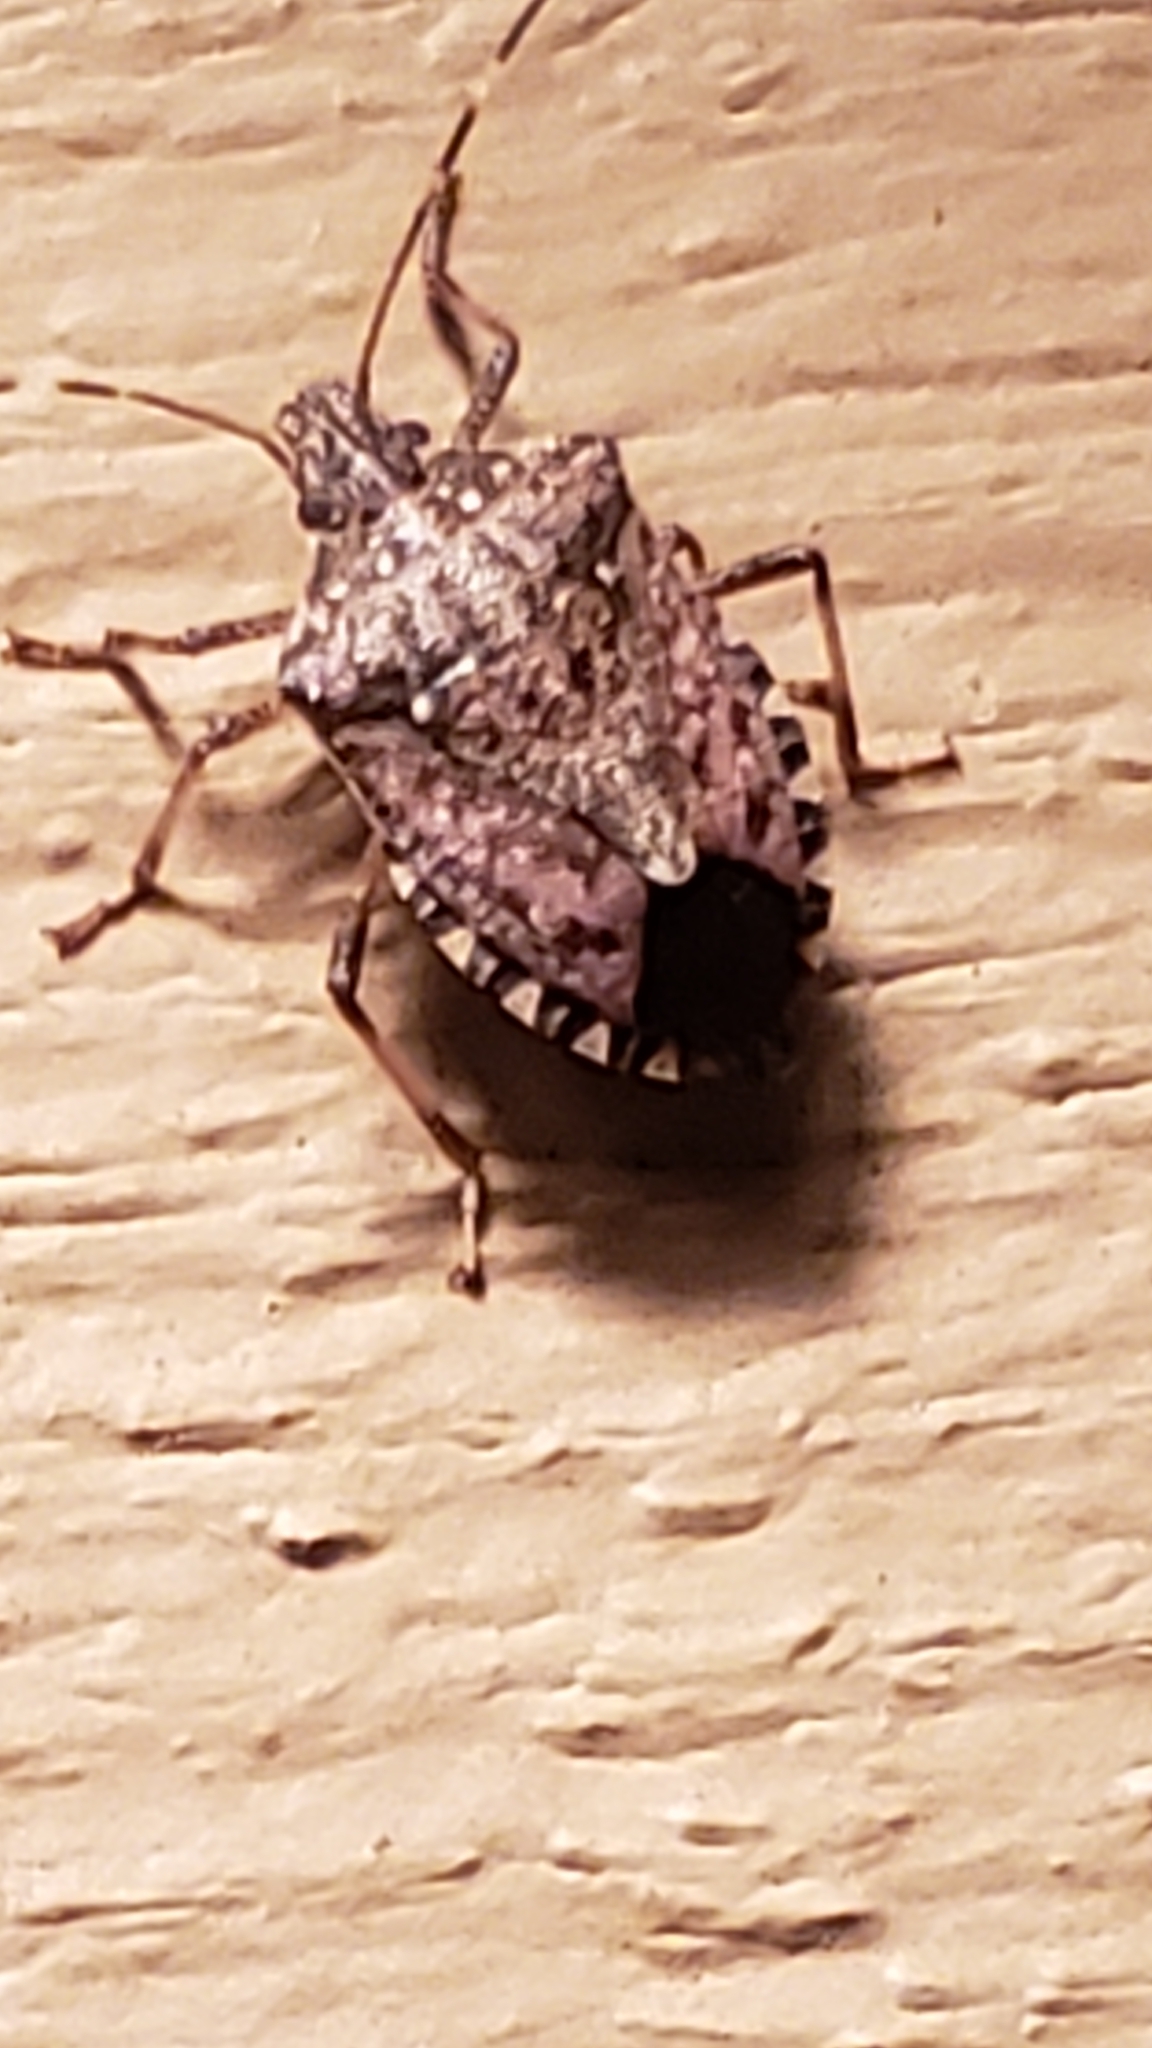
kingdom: Animalia
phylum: Arthropoda
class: Insecta
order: Hemiptera
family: Pentatomidae
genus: Halyomorpha
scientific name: Halyomorpha halys
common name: Brown marmorated stink bug
